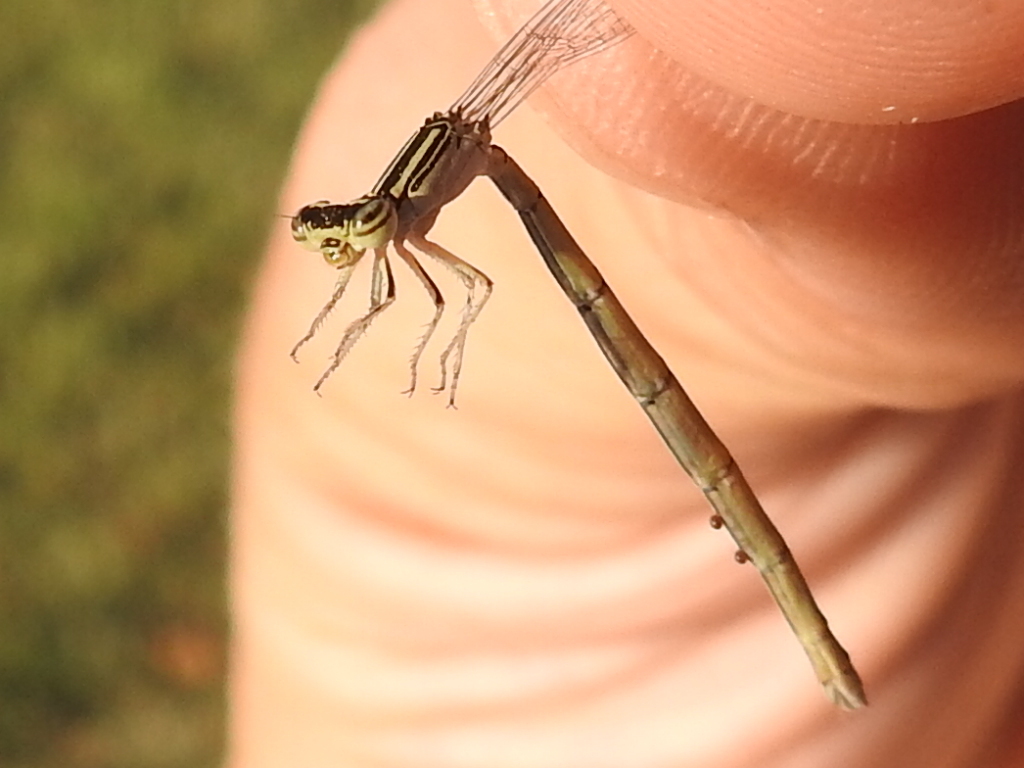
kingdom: Animalia
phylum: Arthropoda
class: Insecta
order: Odonata
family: Coenagrionidae
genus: Enallagma
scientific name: Enallagma basidens
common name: Double-striped bluet
